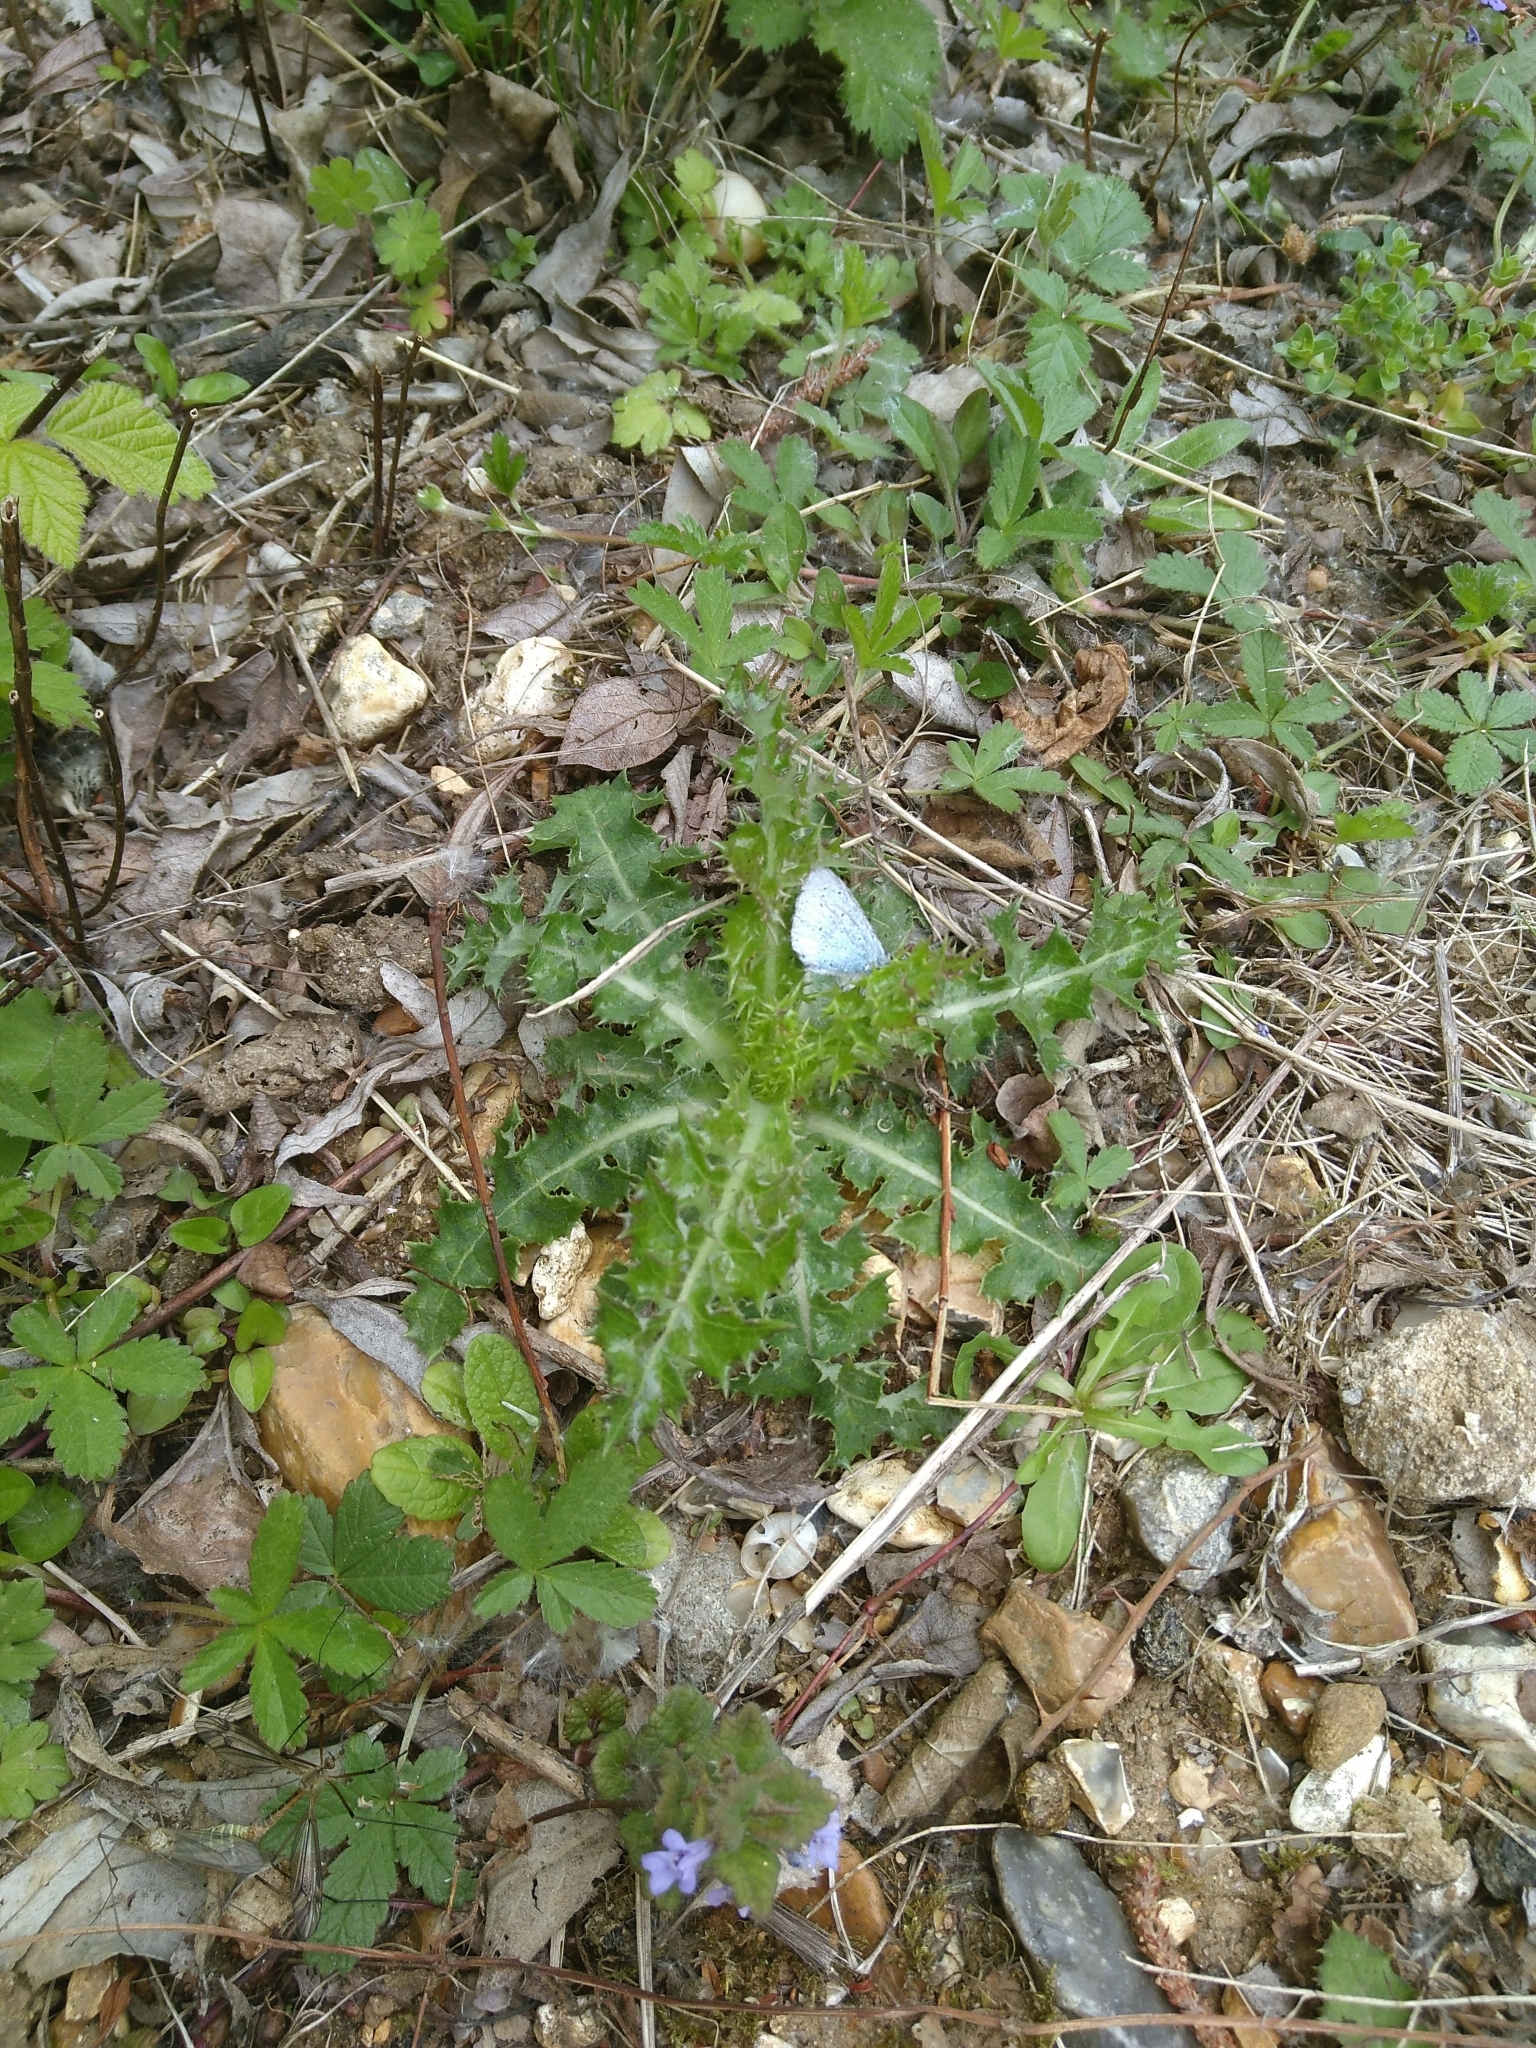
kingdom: Animalia
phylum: Arthropoda
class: Insecta
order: Lepidoptera
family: Lycaenidae
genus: Celastrina
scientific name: Celastrina argiolus
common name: Holly blue
